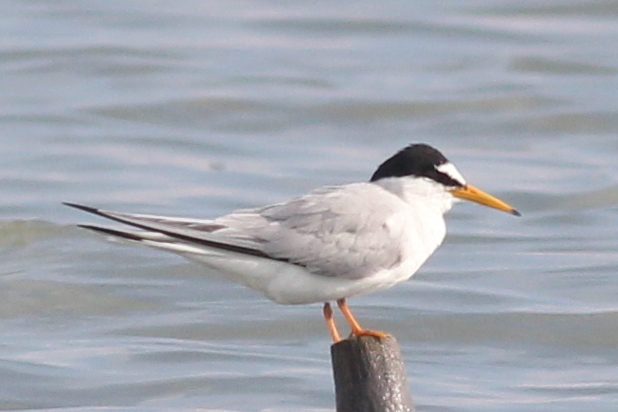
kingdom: Animalia
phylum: Chordata
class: Aves
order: Charadriiformes
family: Laridae
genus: Sternula
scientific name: Sternula albifrons
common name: Little tern
